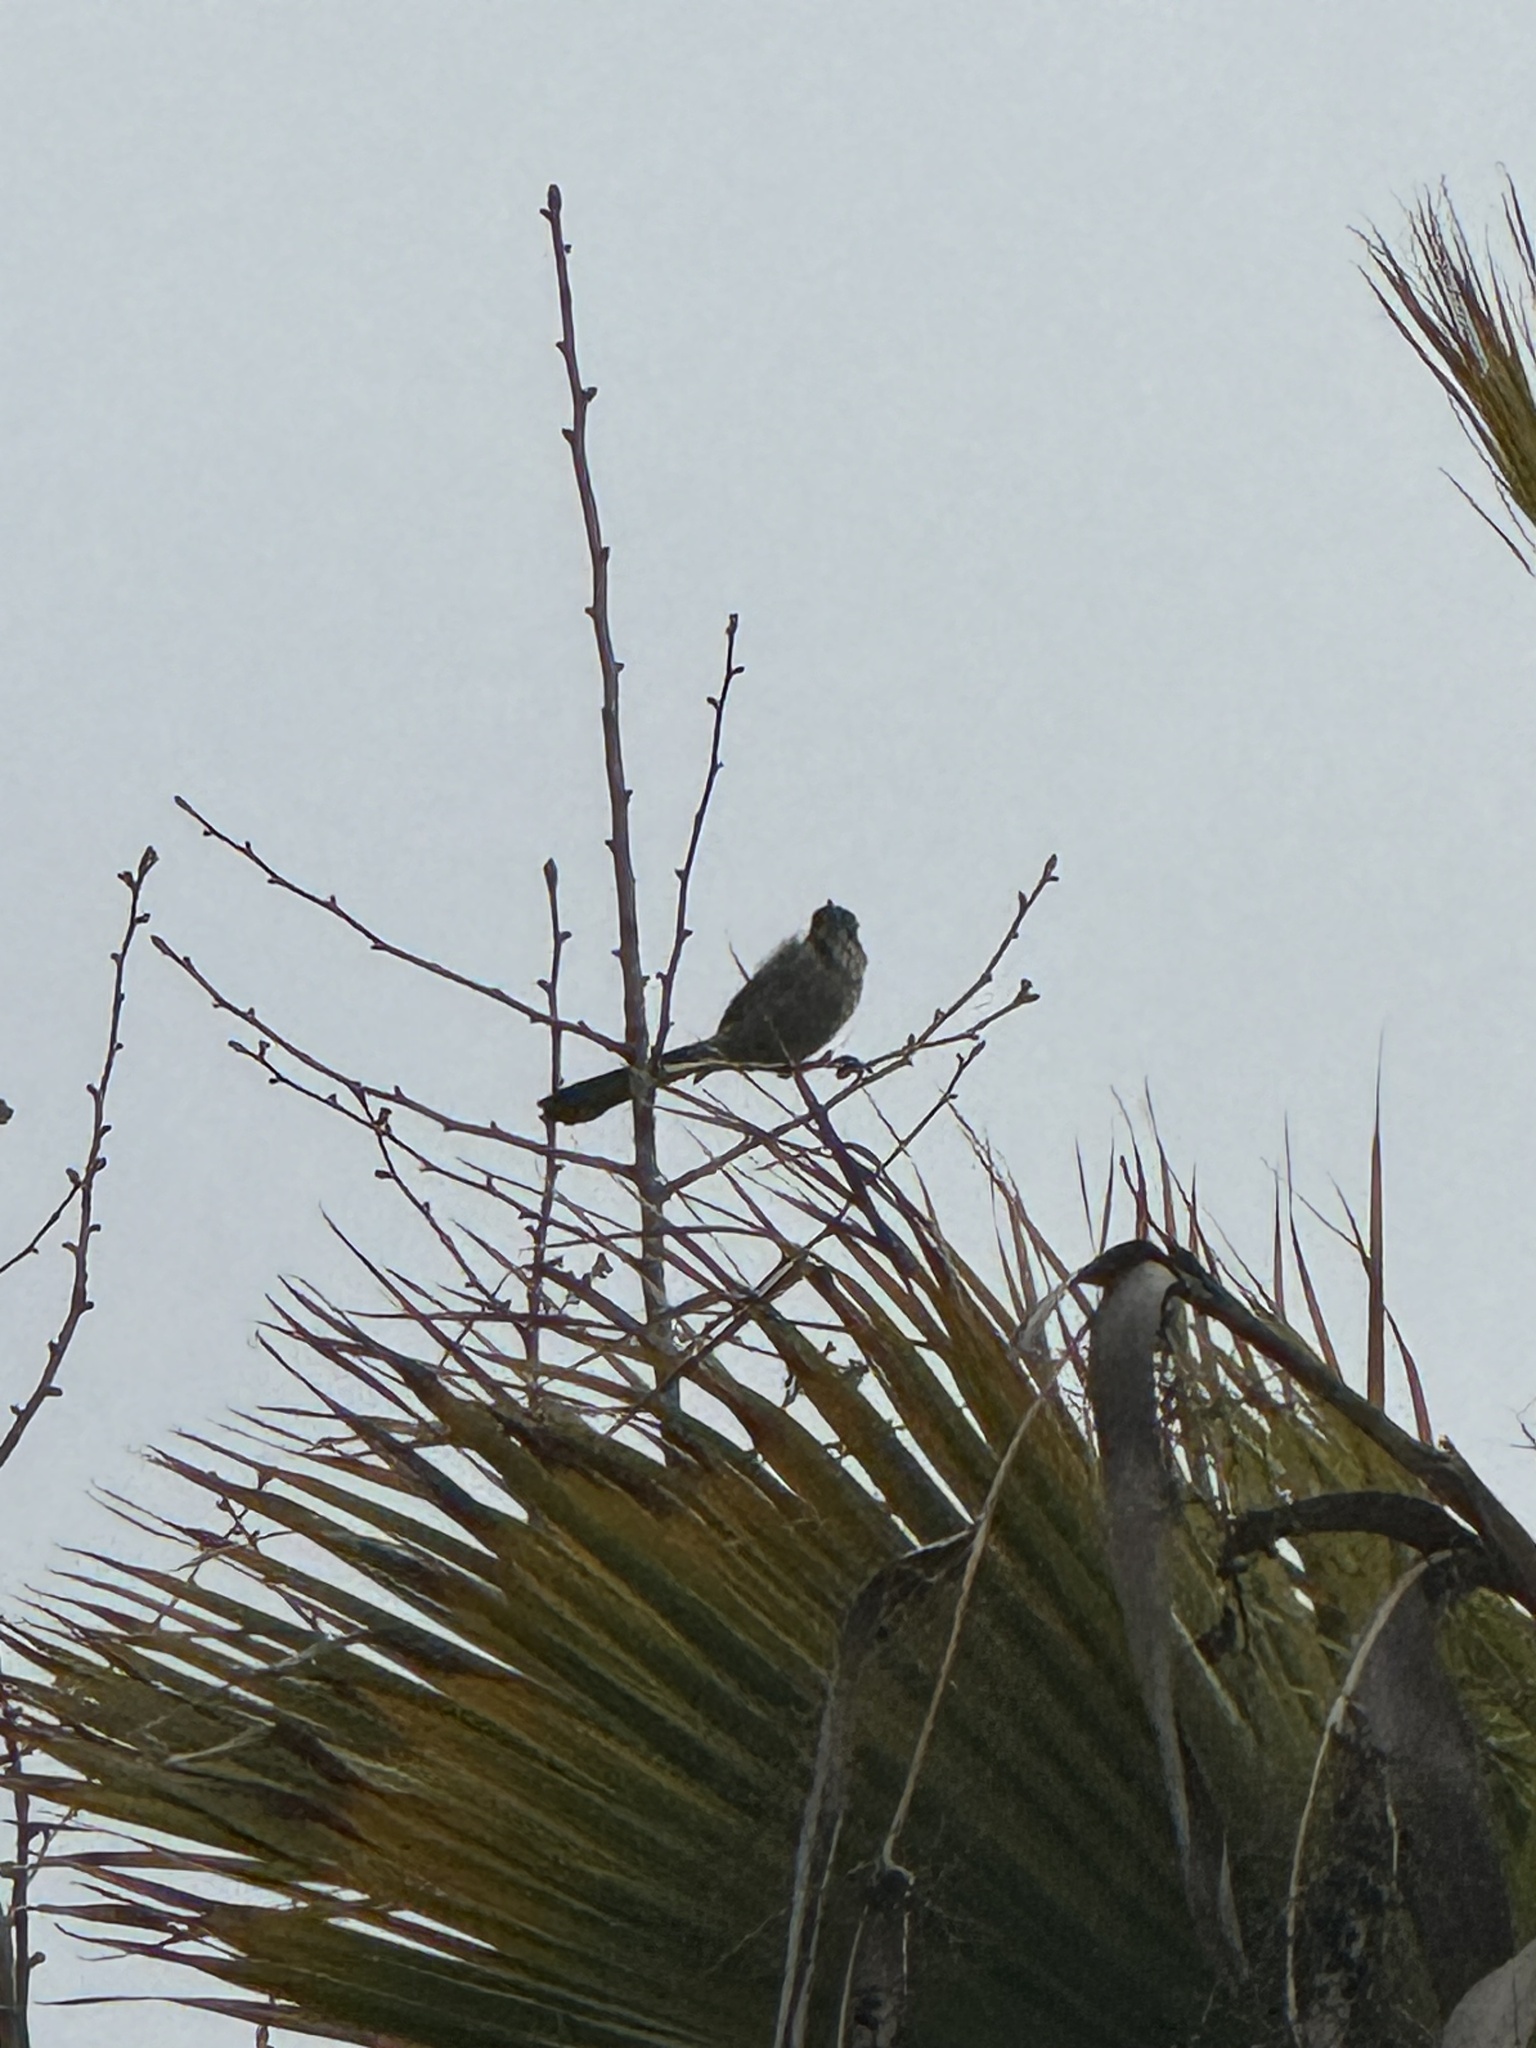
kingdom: Animalia
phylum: Chordata
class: Aves
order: Passeriformes
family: Corvidae
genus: Aphelocoma
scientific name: Aphelocoma californica
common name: California scrub-jay
